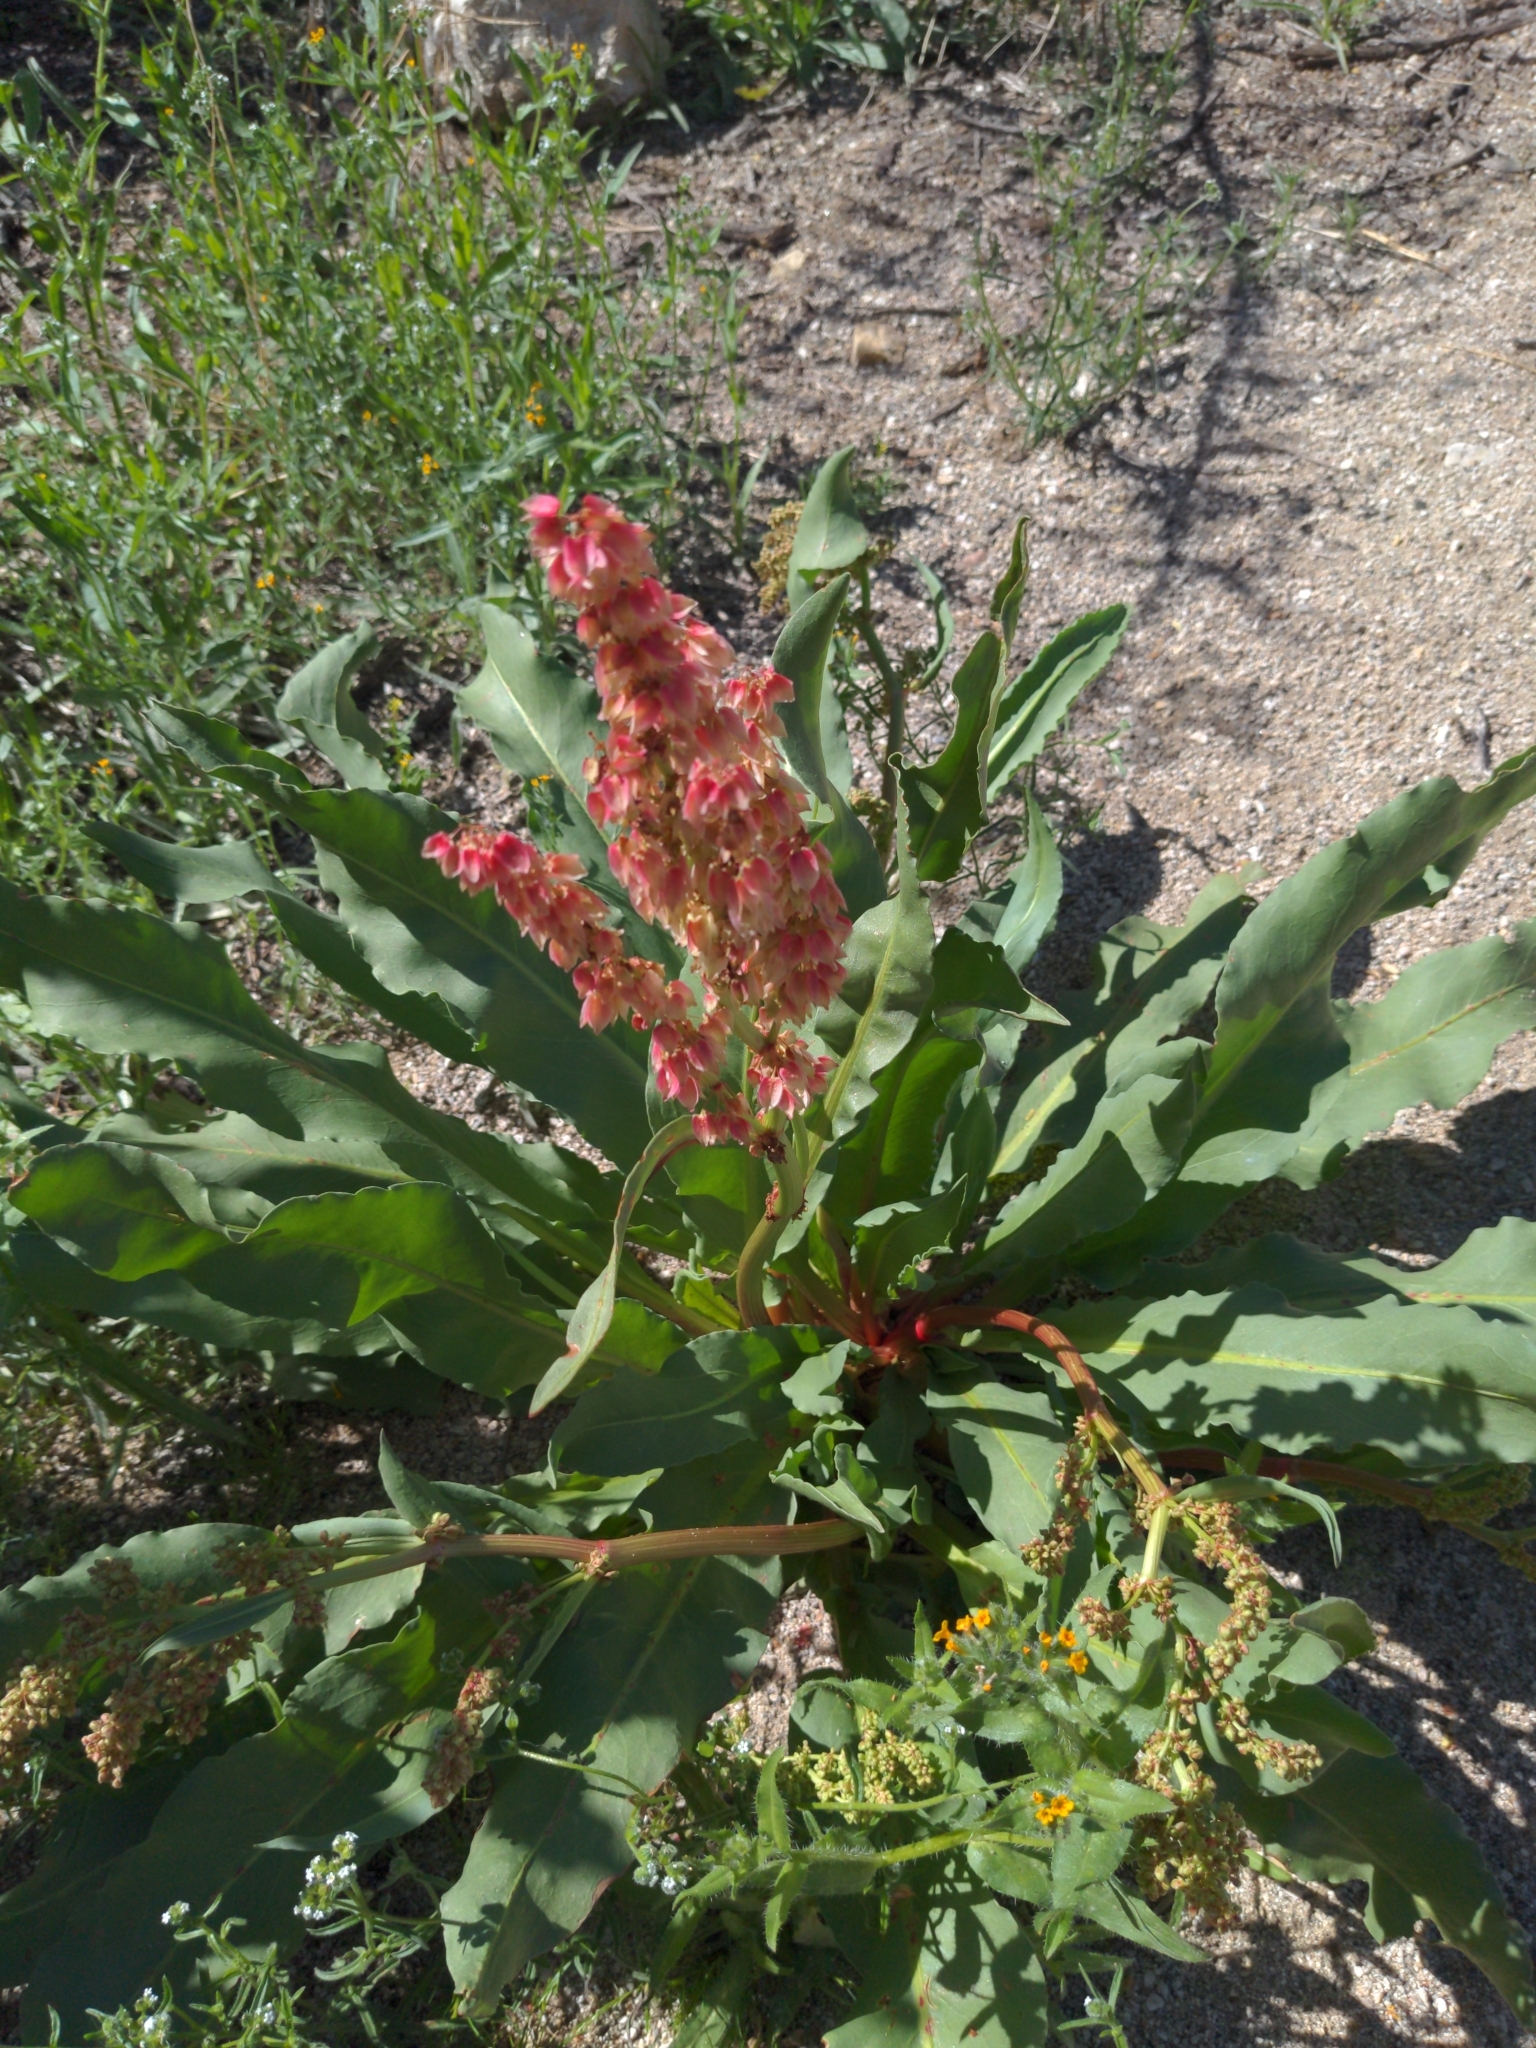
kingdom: Plantae
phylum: Tracheophyta
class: Magnoliopsida
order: Caryophyllales
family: Polygonaceae
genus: Rumex
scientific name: Rumex hymenosepalus
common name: Ganagra
